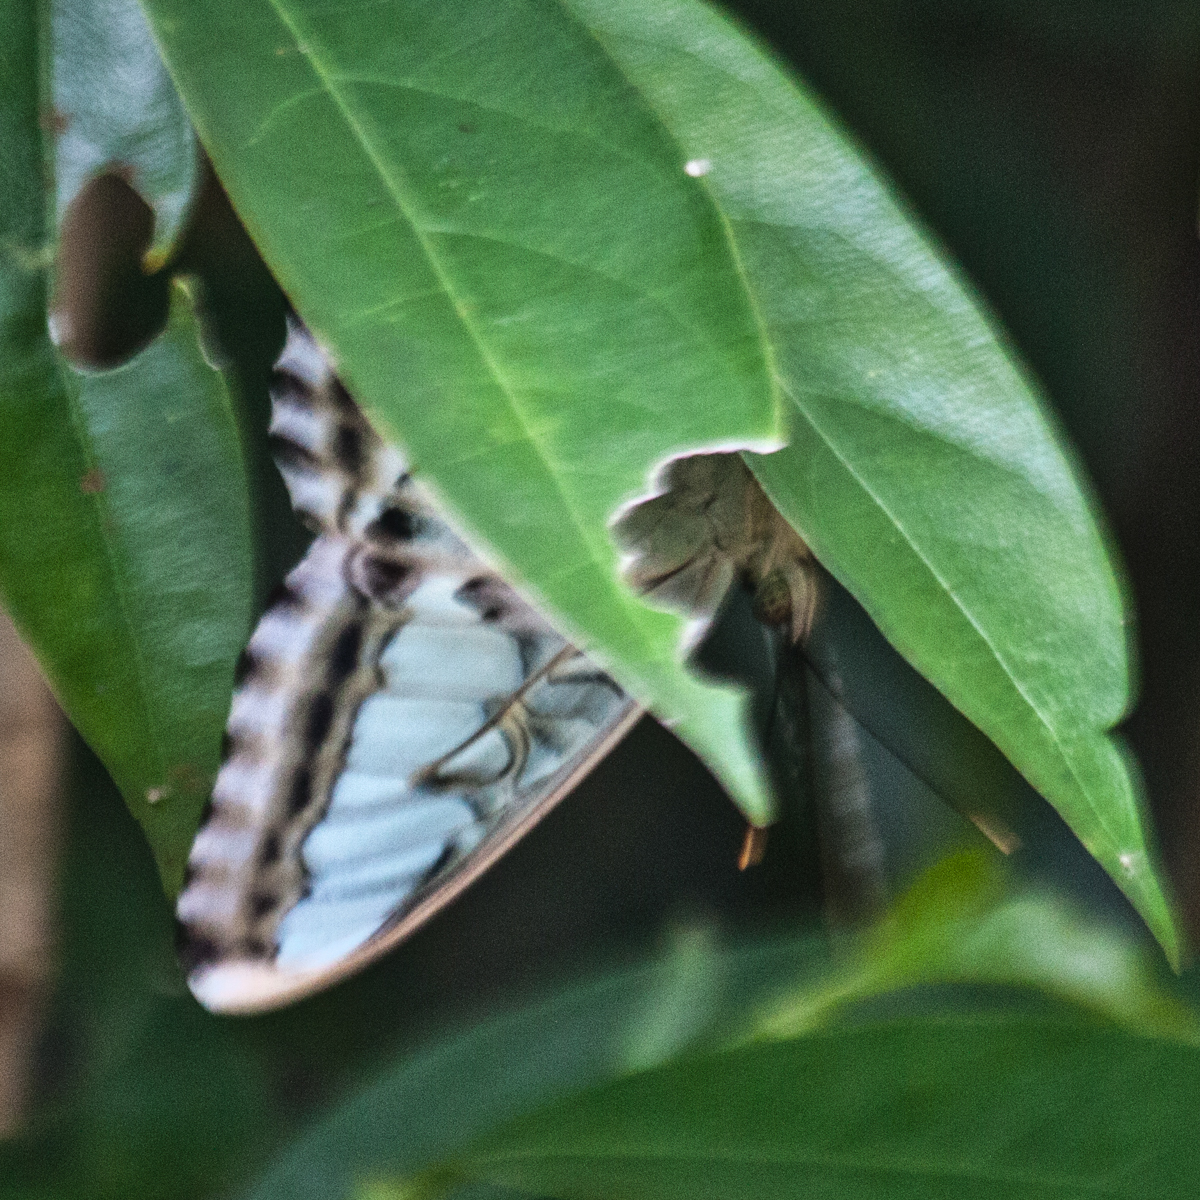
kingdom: Animalia
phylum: Arthropoda
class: Insecta
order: Lepidoptera
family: Nymphalidae
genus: Kallima
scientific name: Kallima sylvia
